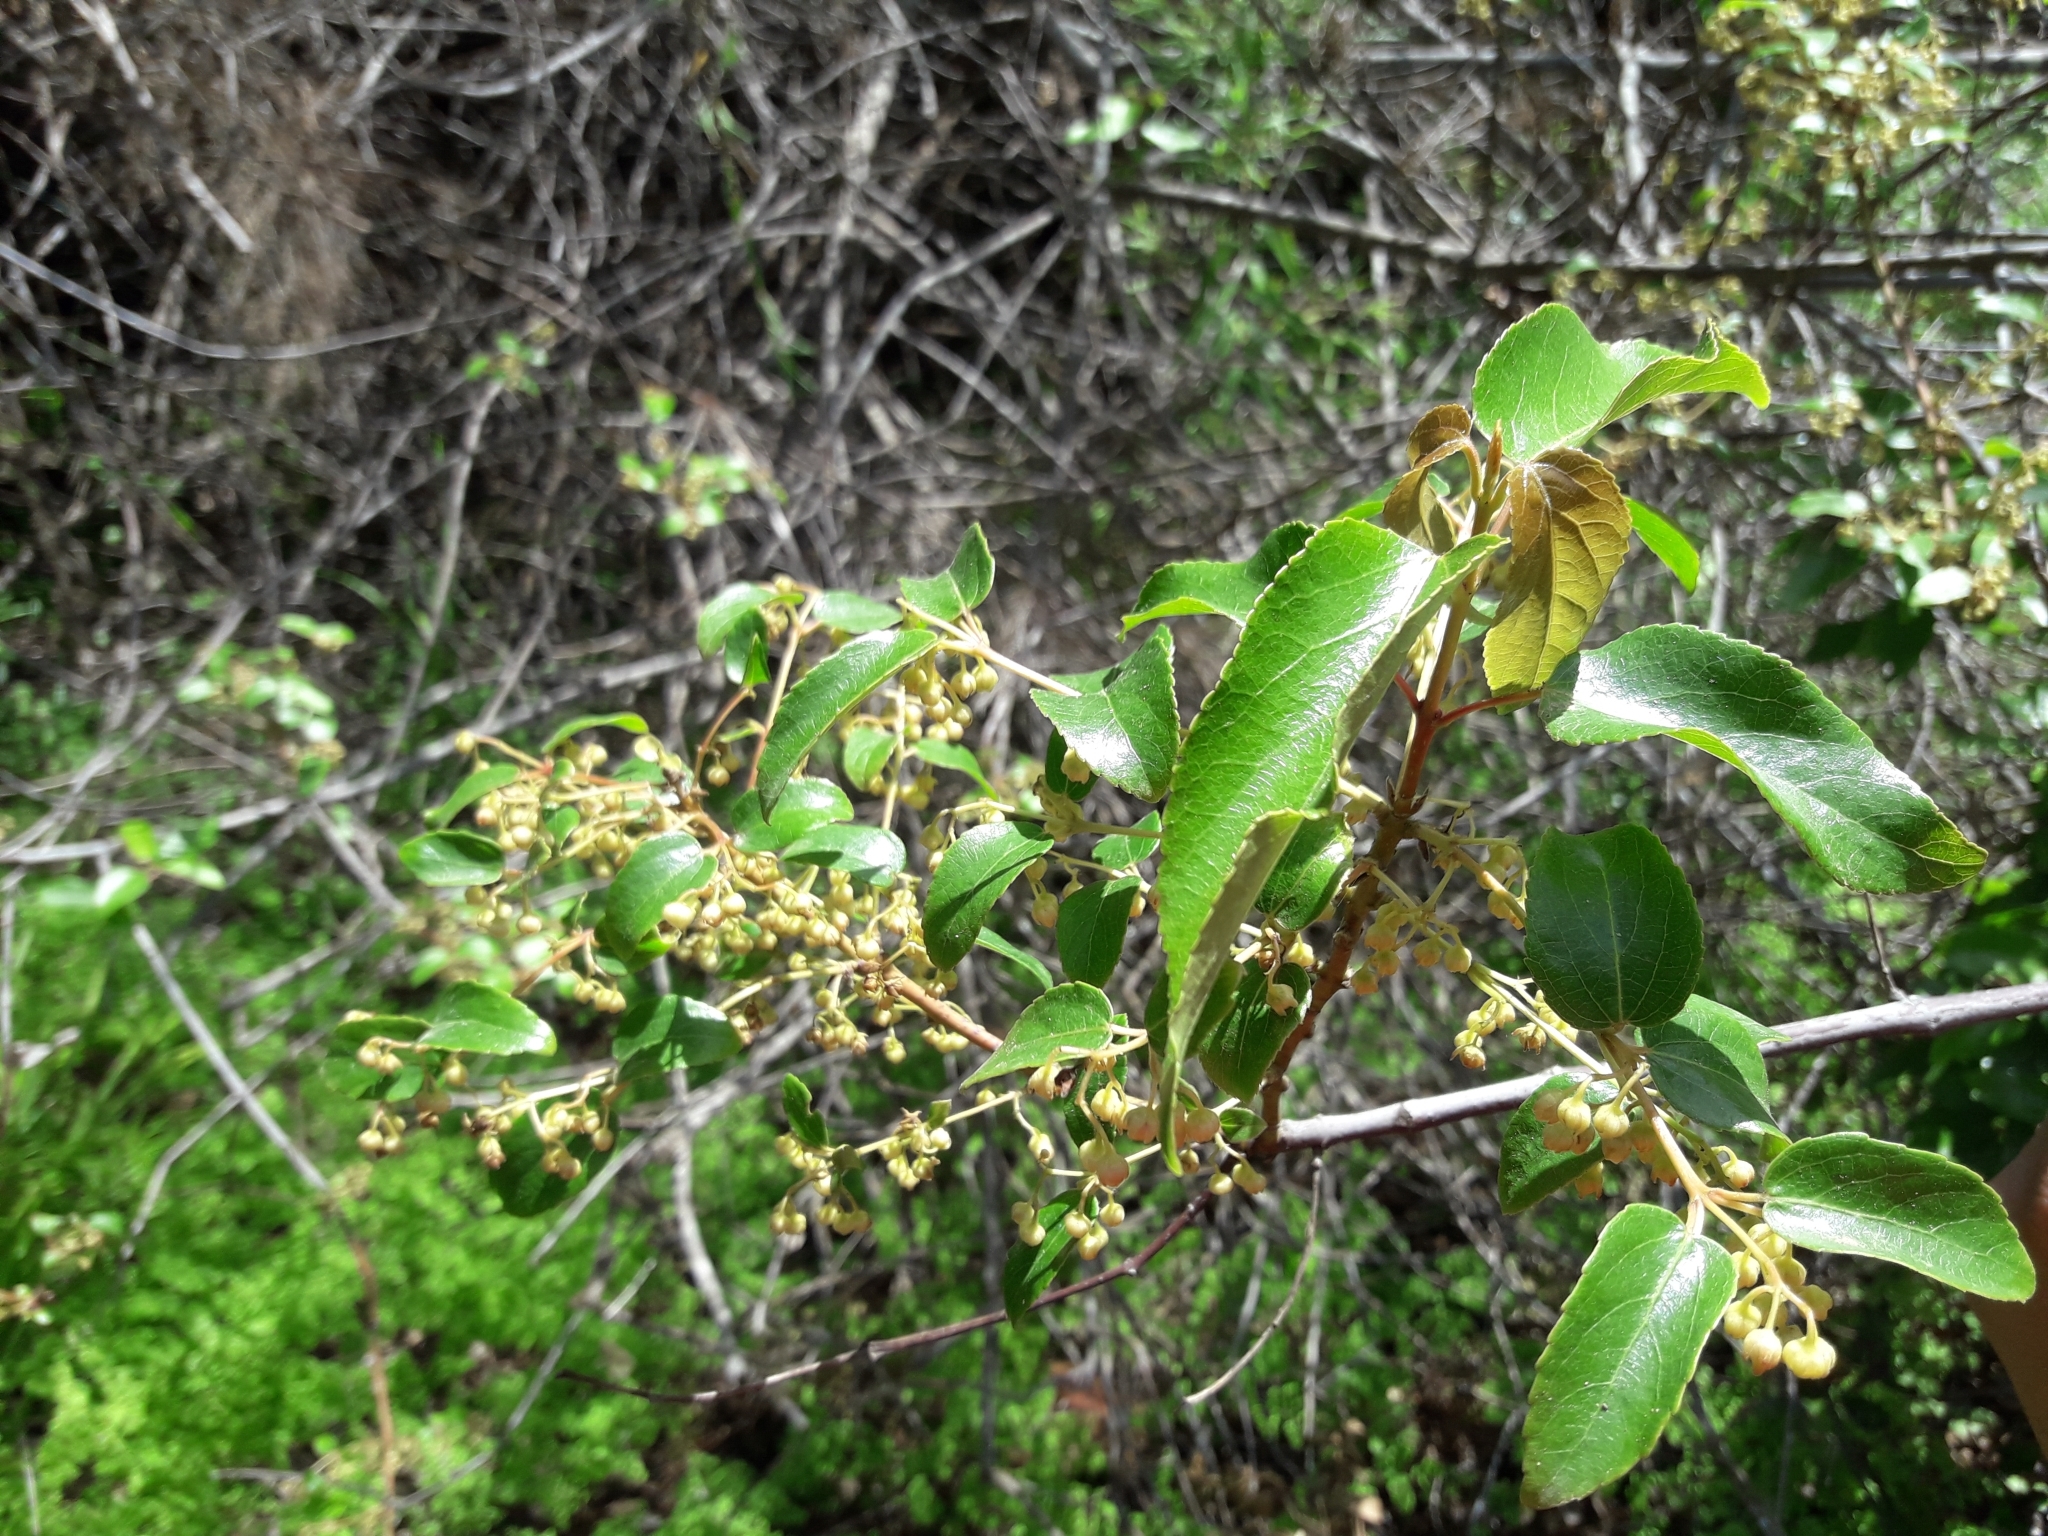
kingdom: Plantae
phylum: Tracheophyta
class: Magnoliopsida
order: Oxalidales
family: Elaeocarpaceae
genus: Aristotelia
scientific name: Aristotelia chilensis
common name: Maquei
